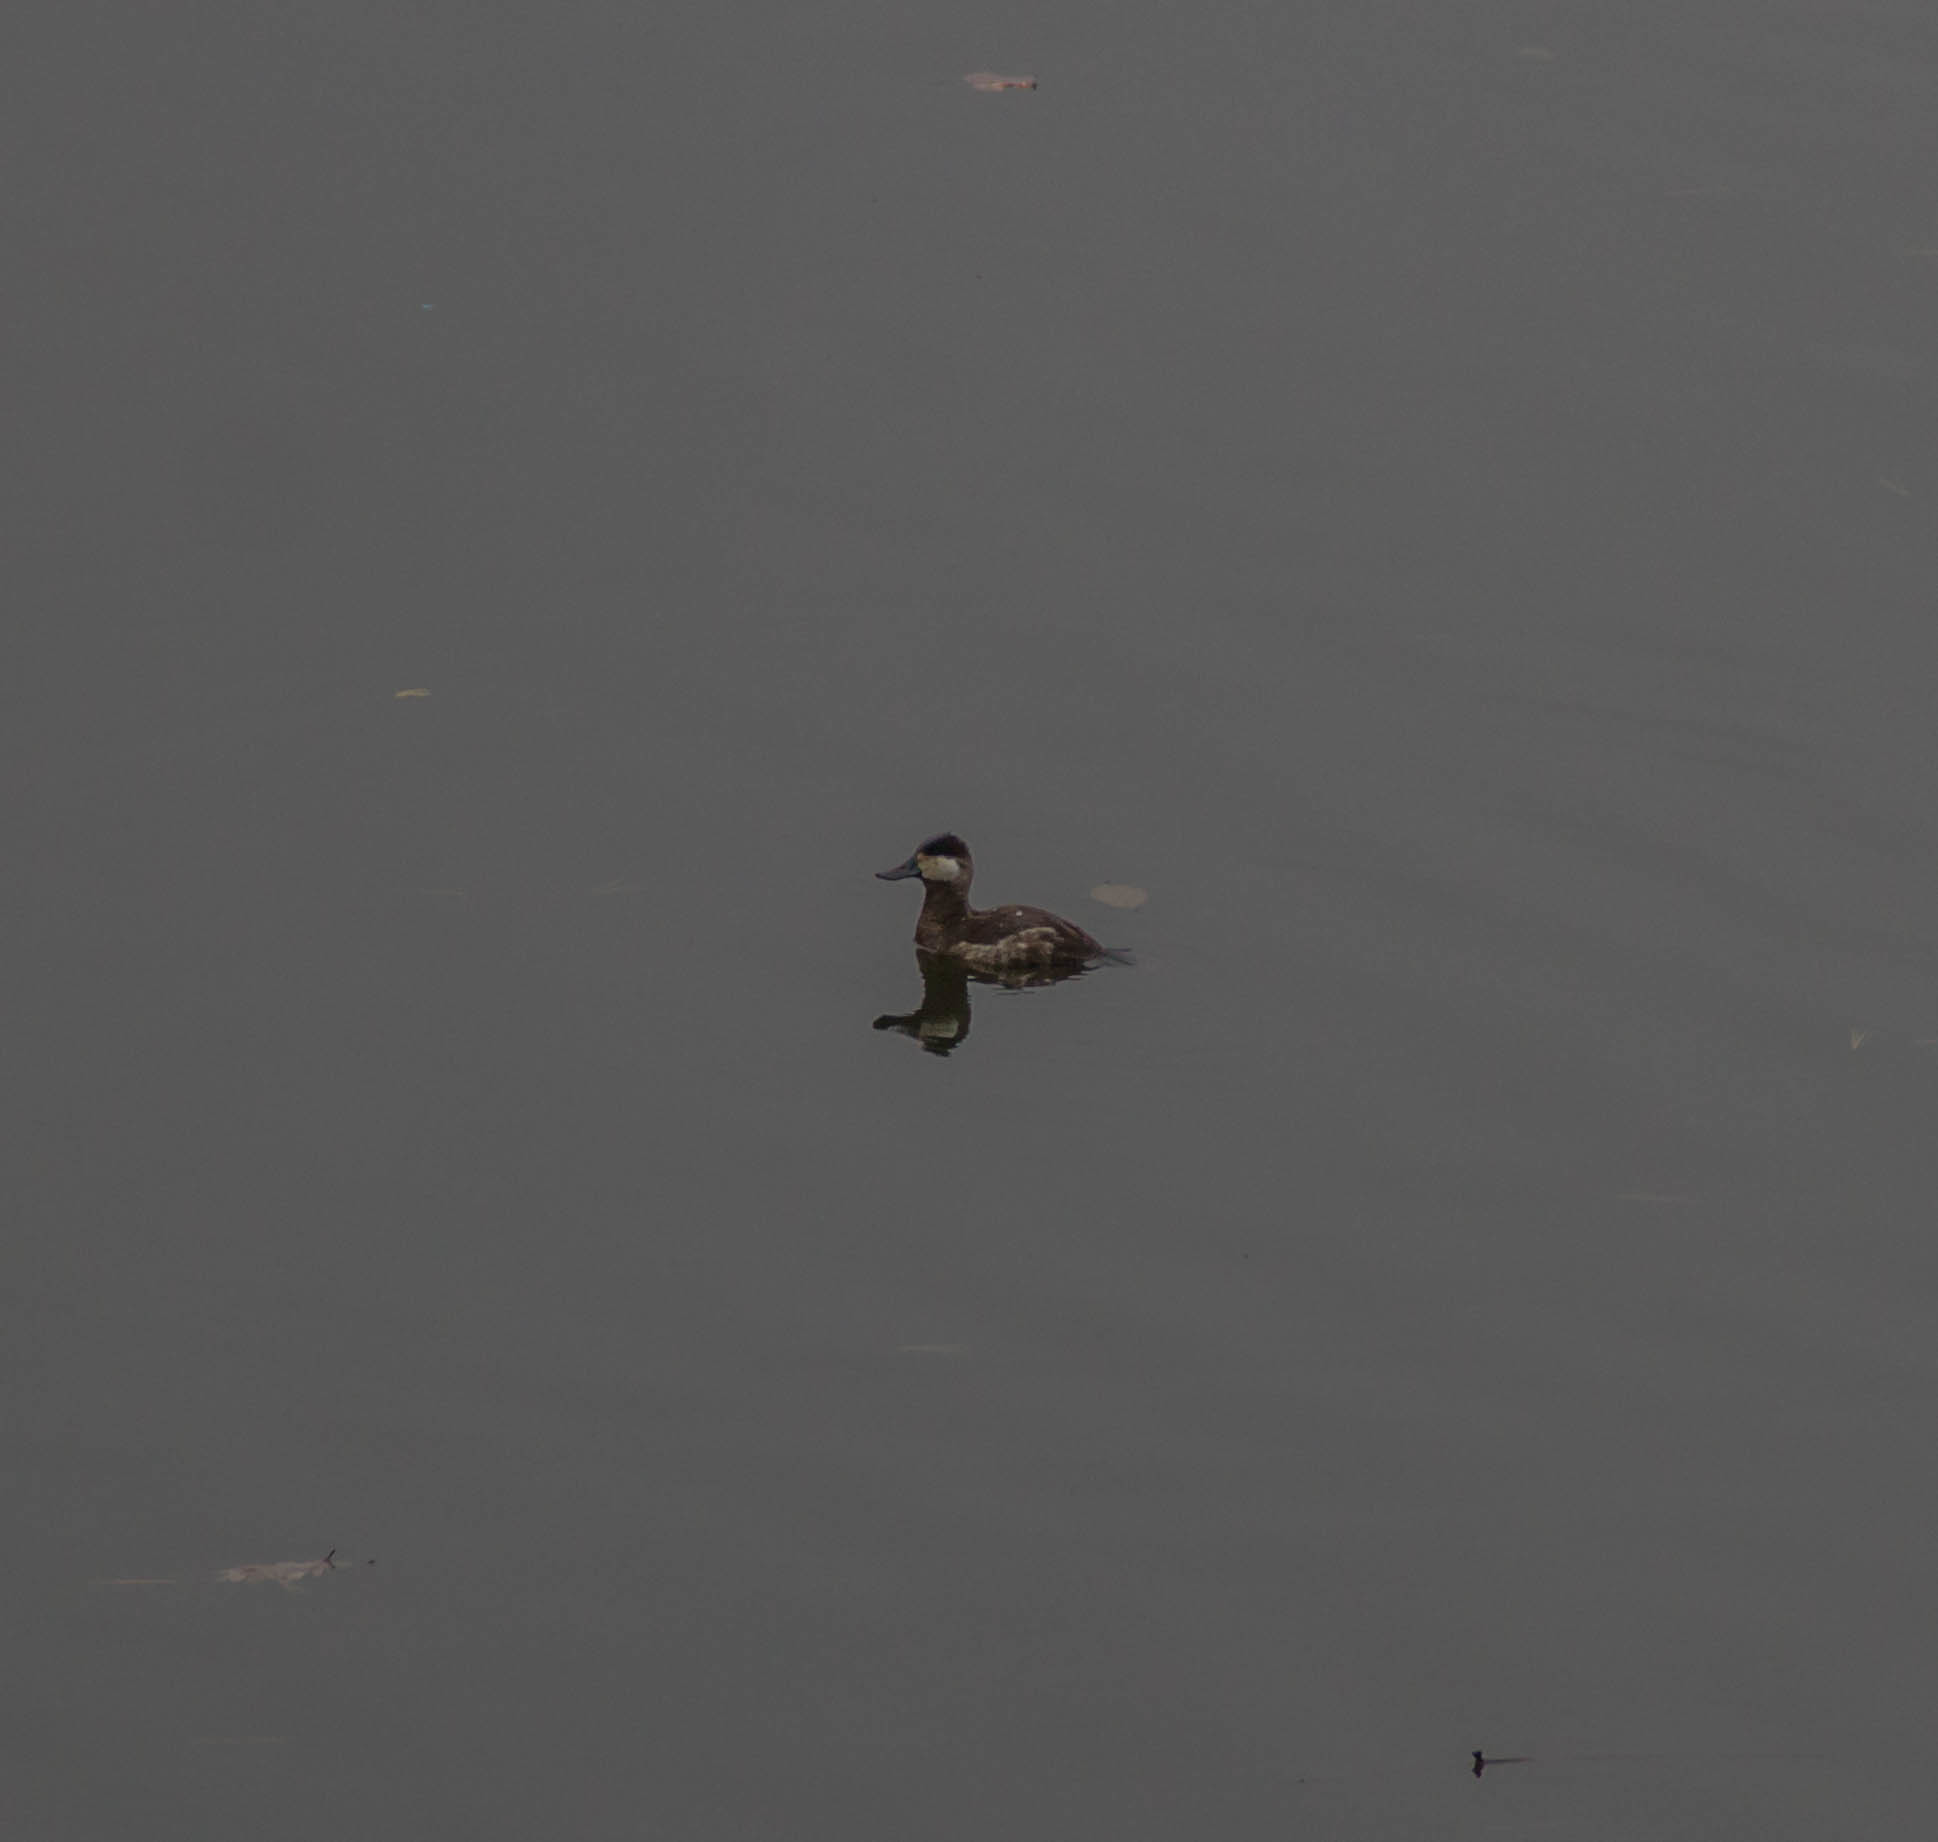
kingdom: Animalia
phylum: Chordata
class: Aves
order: Anseriformes
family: Anatidae
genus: Oxyura
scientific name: Oxyura jamaicensis
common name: Ruddy duck
